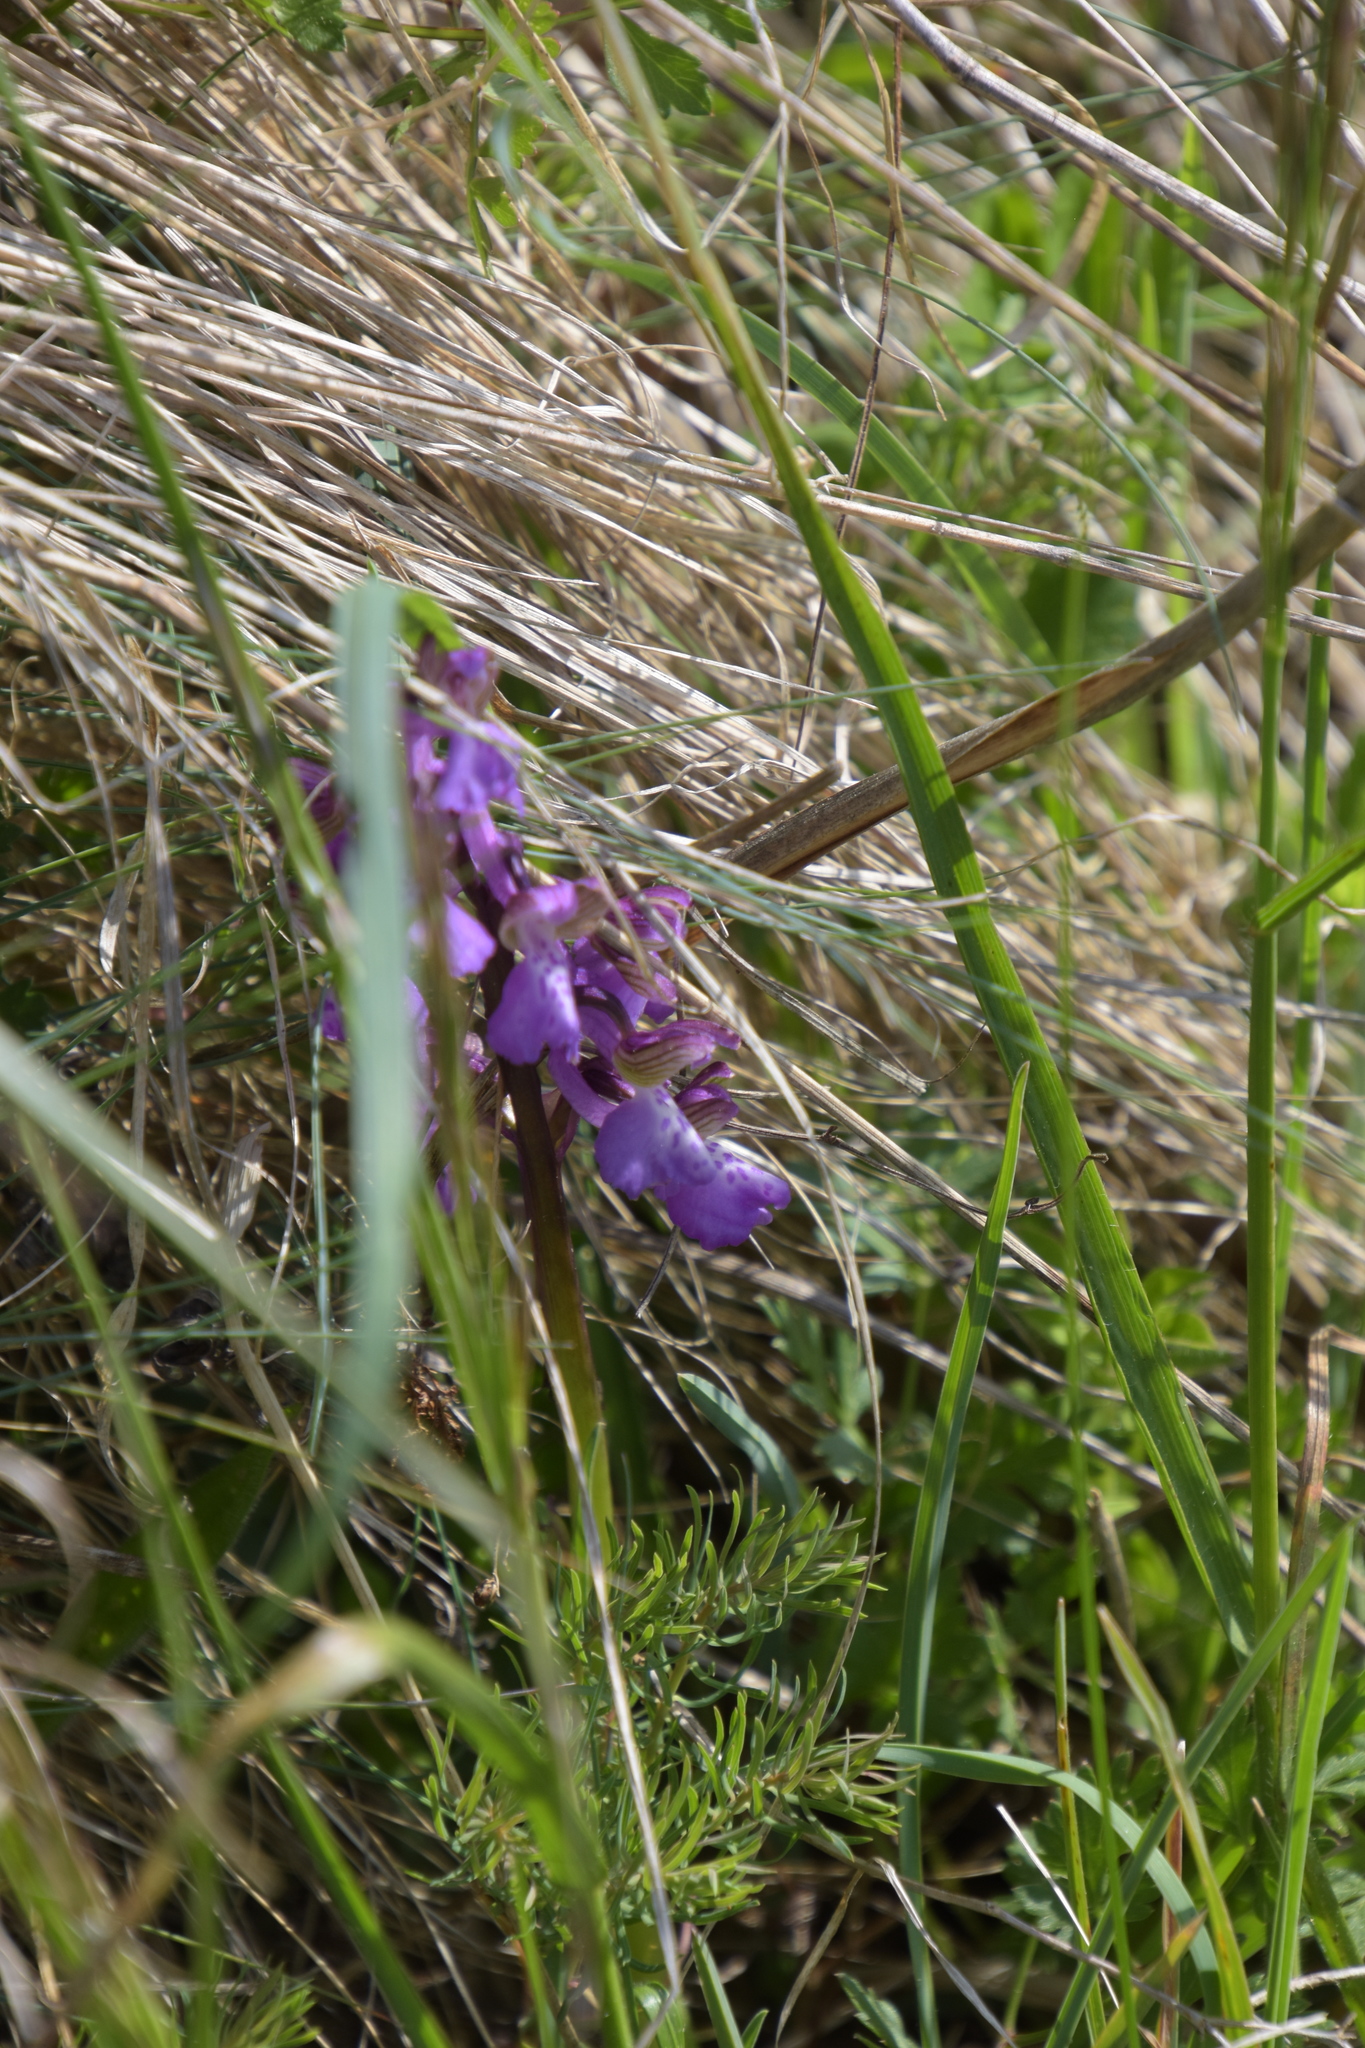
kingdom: Plantae
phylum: Tracheophyta
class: Liliopsida
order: Asparagales
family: Orchidaceae
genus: Anacamptis
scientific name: Anacamptis morio
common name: Green-winged orchid
